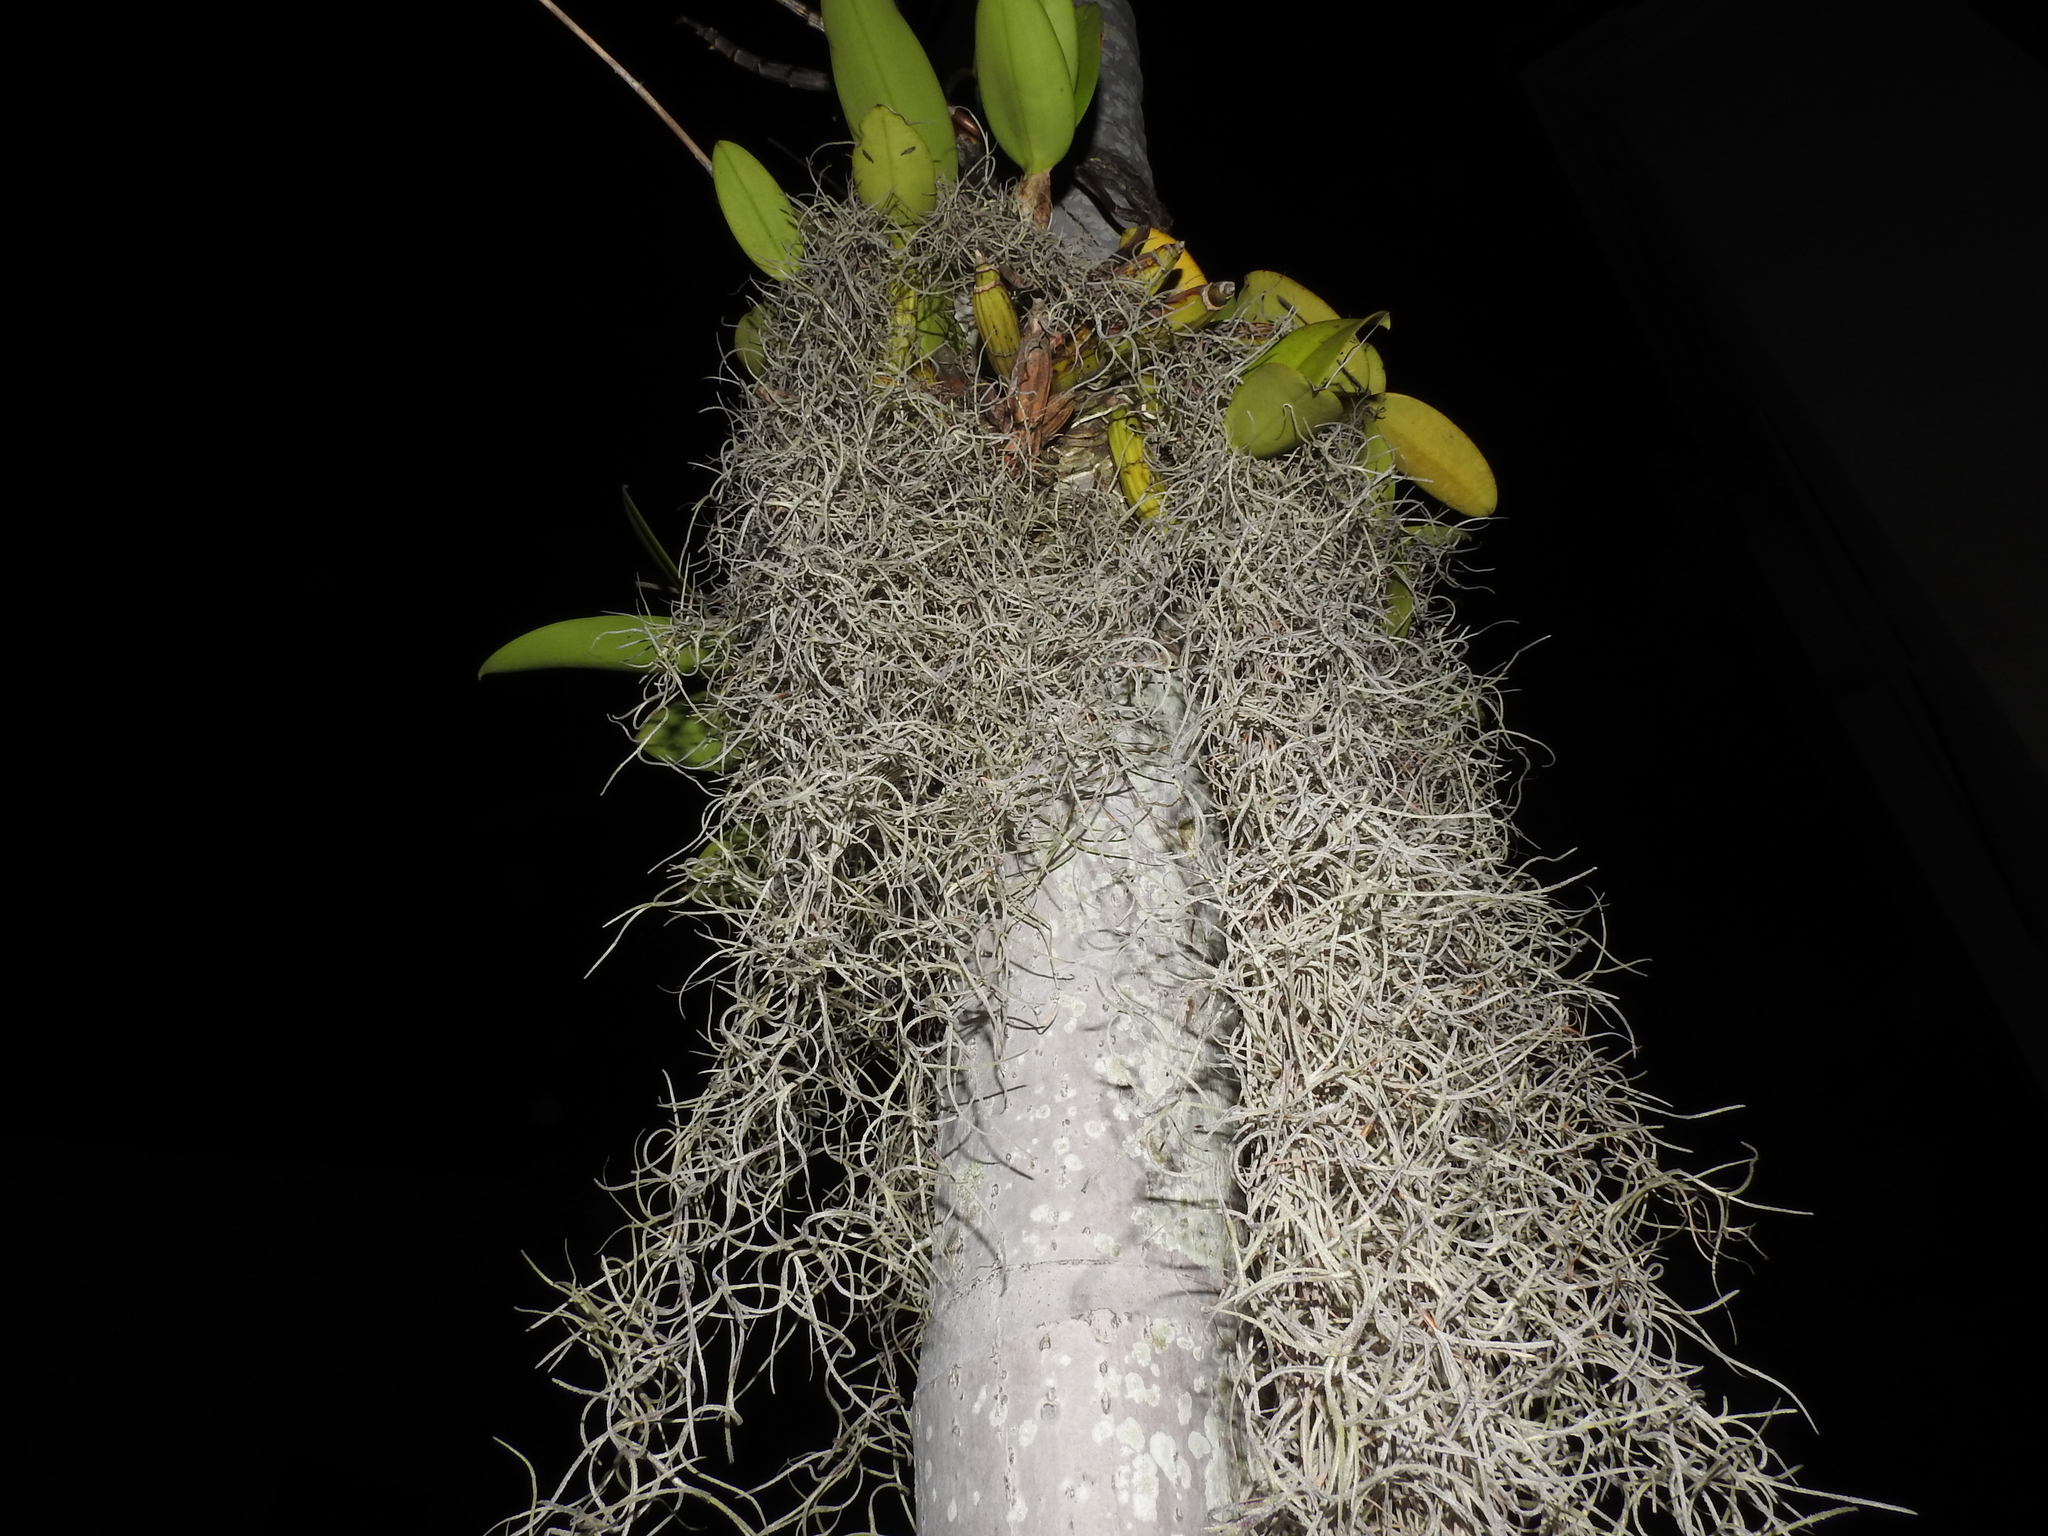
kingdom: Plantae
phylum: Tracheophyta
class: Liliopsida
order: Poales
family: Bromeliaceae
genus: Tillandsia
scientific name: Tillandsia usneoides
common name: Spanish moss
